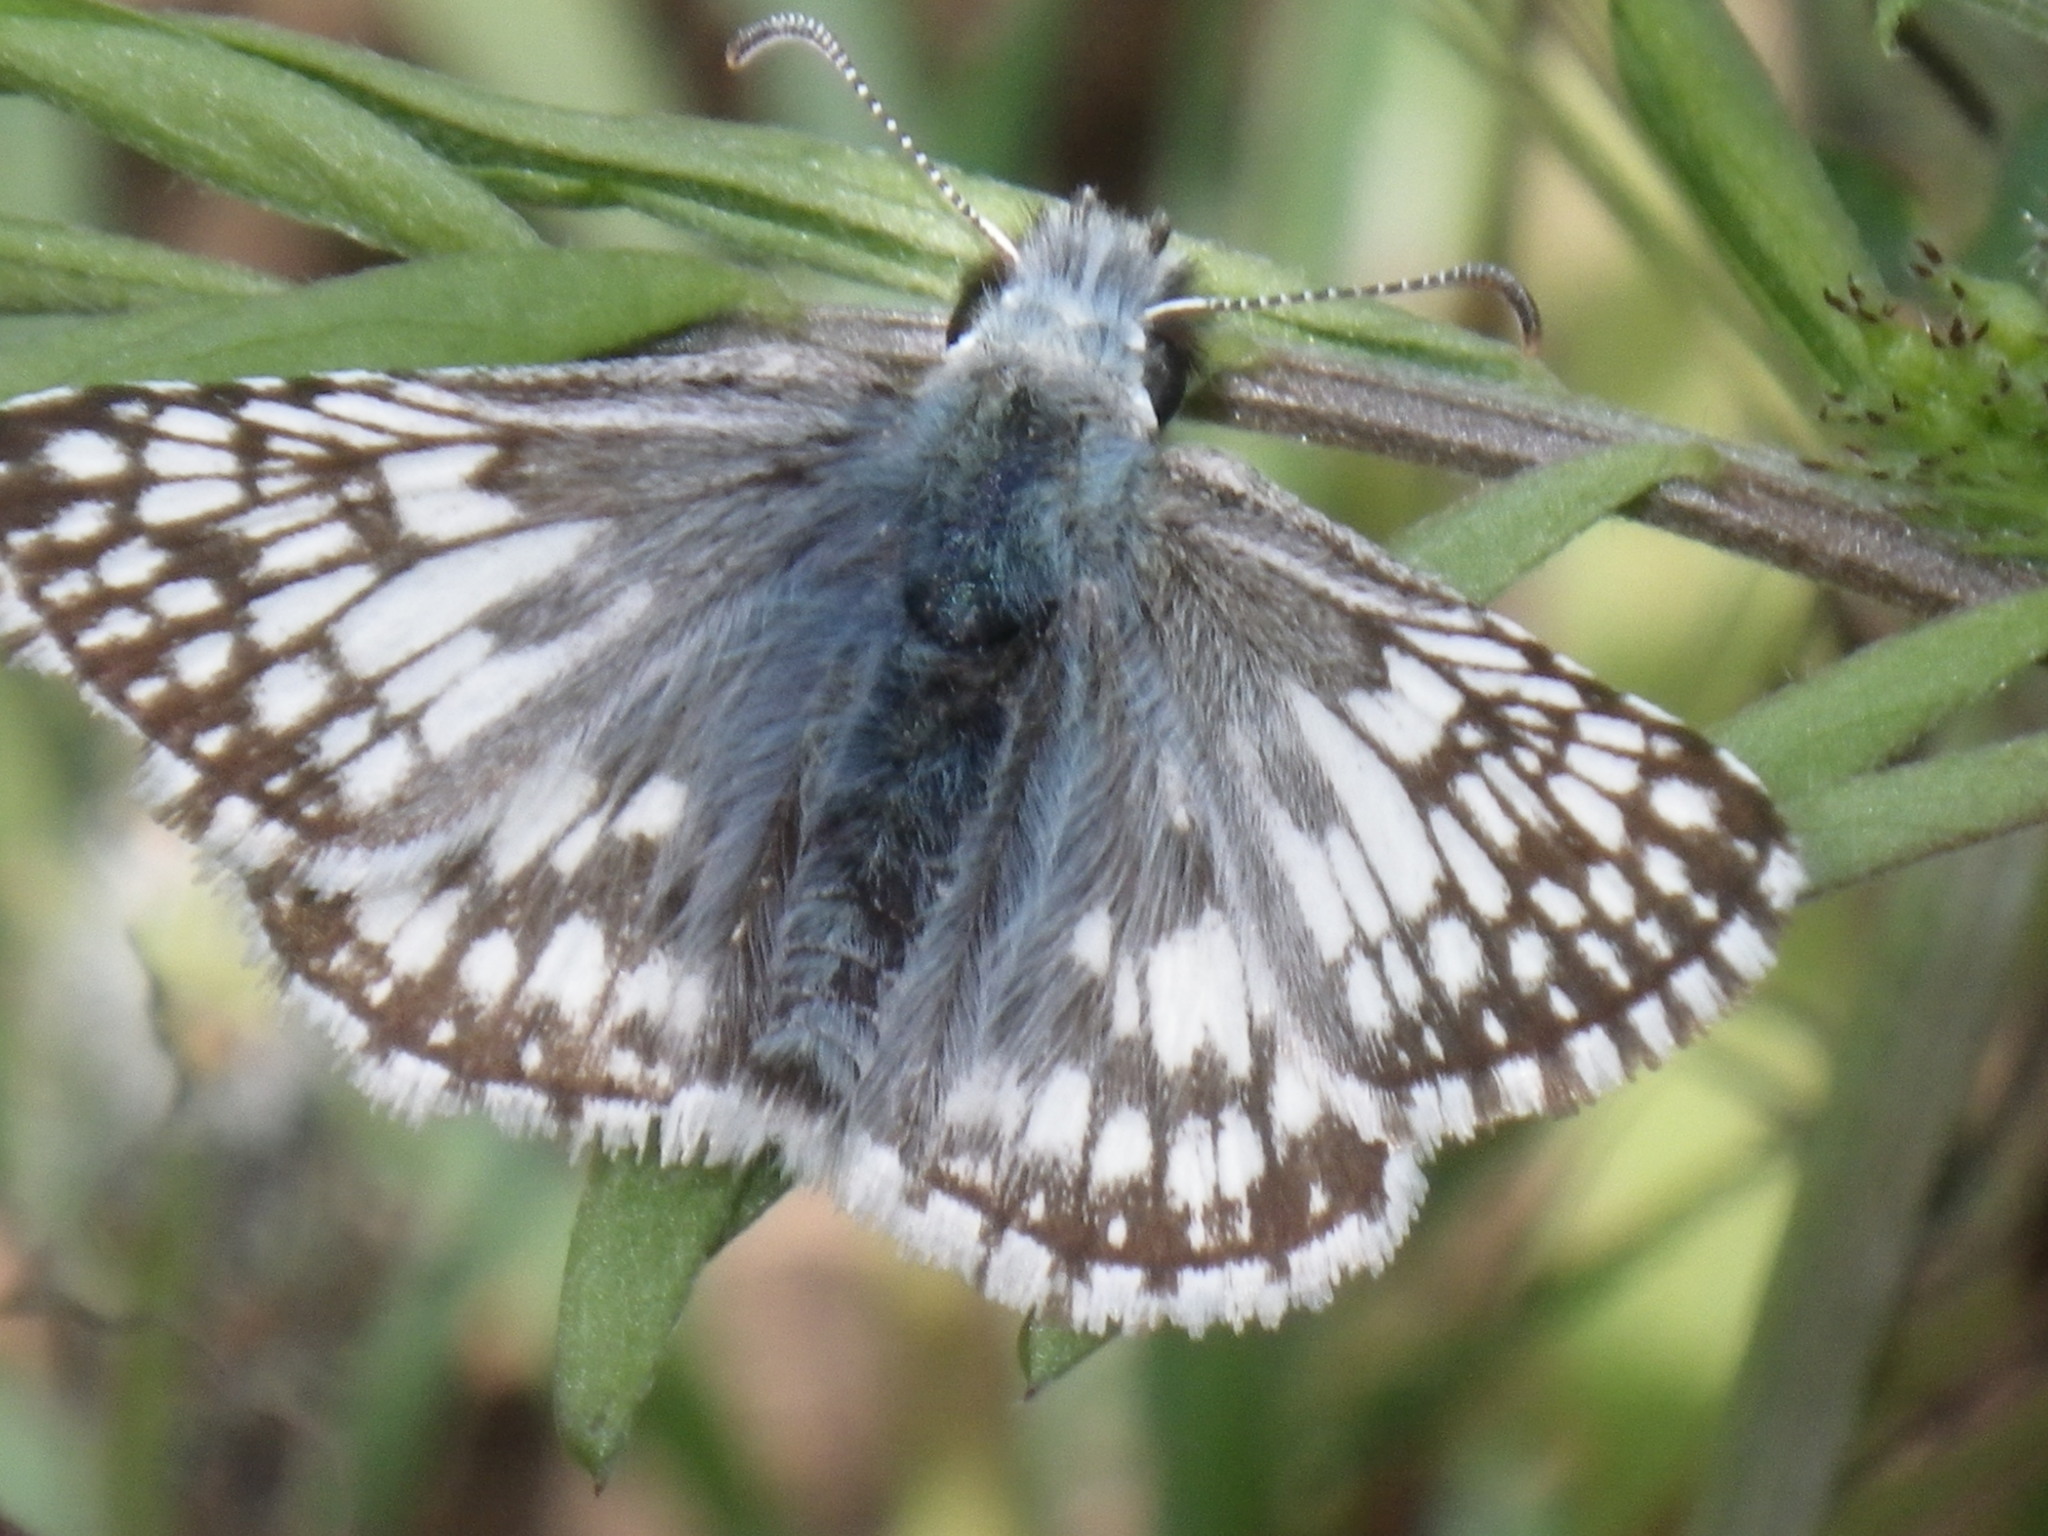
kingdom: Animalia
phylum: Arthropoda
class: Insecta
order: Lepidoptera
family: Hesperiidae
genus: Burnsius
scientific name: Burnsius communis
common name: Common checkered-skipper
